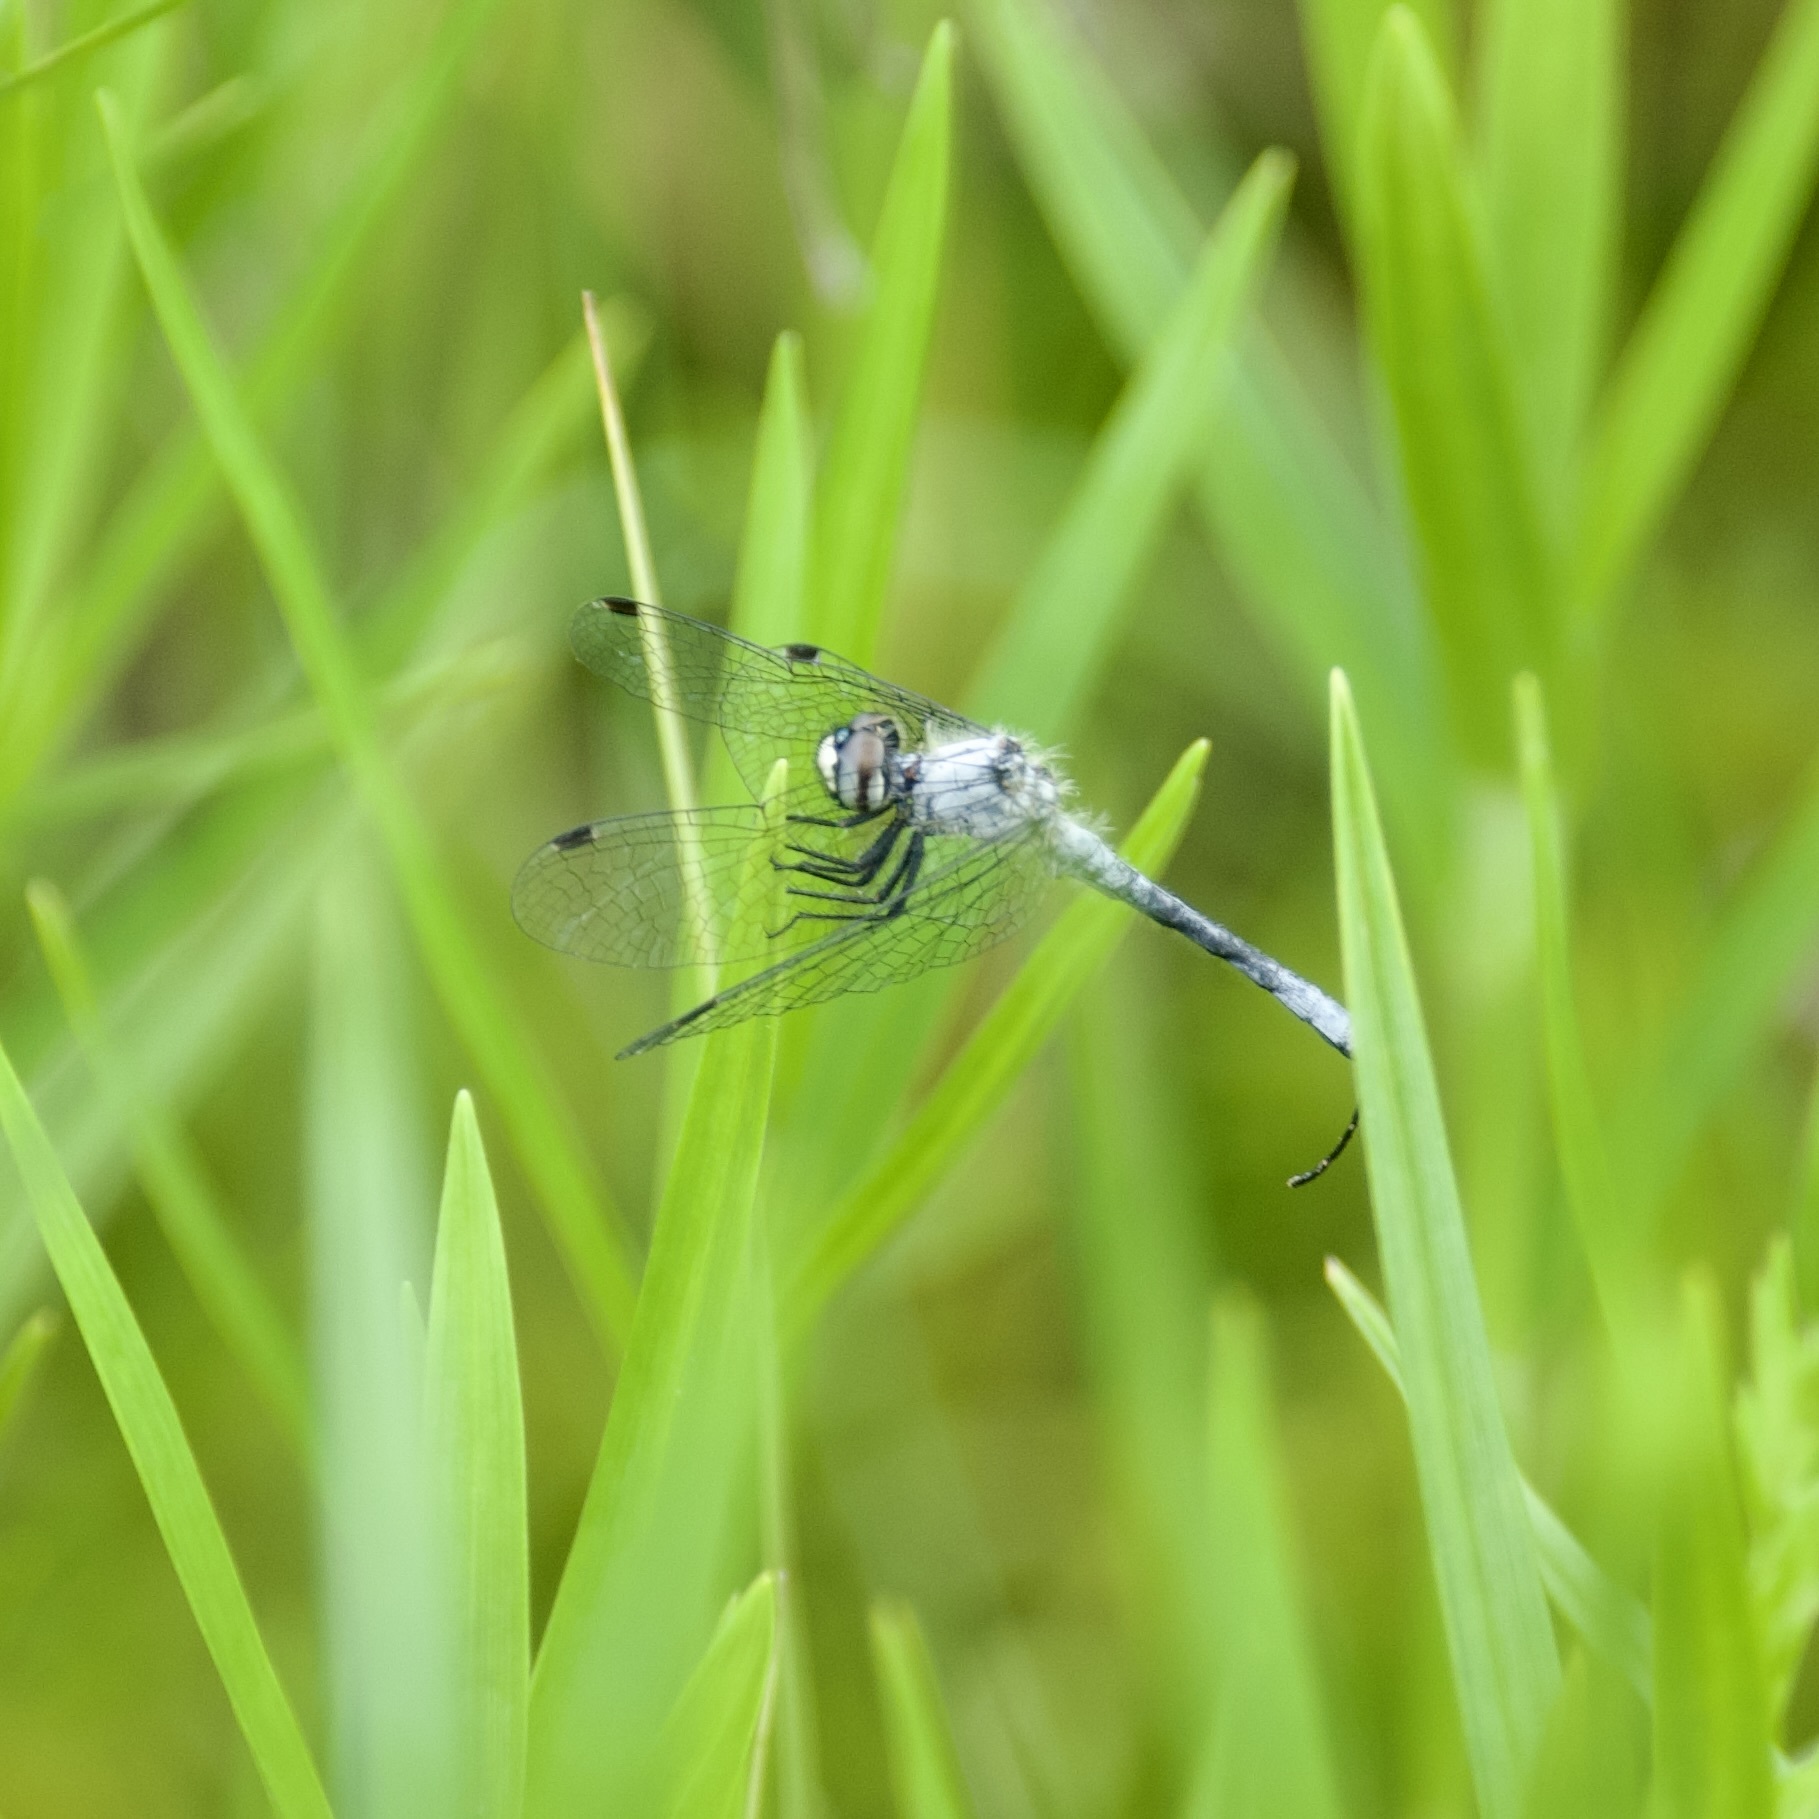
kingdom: Animalia
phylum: Arthropoda
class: Insecta
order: Odonata
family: Libellulidae
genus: Nannothemis
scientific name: Nannothemis bella
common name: Elfin skimmer
